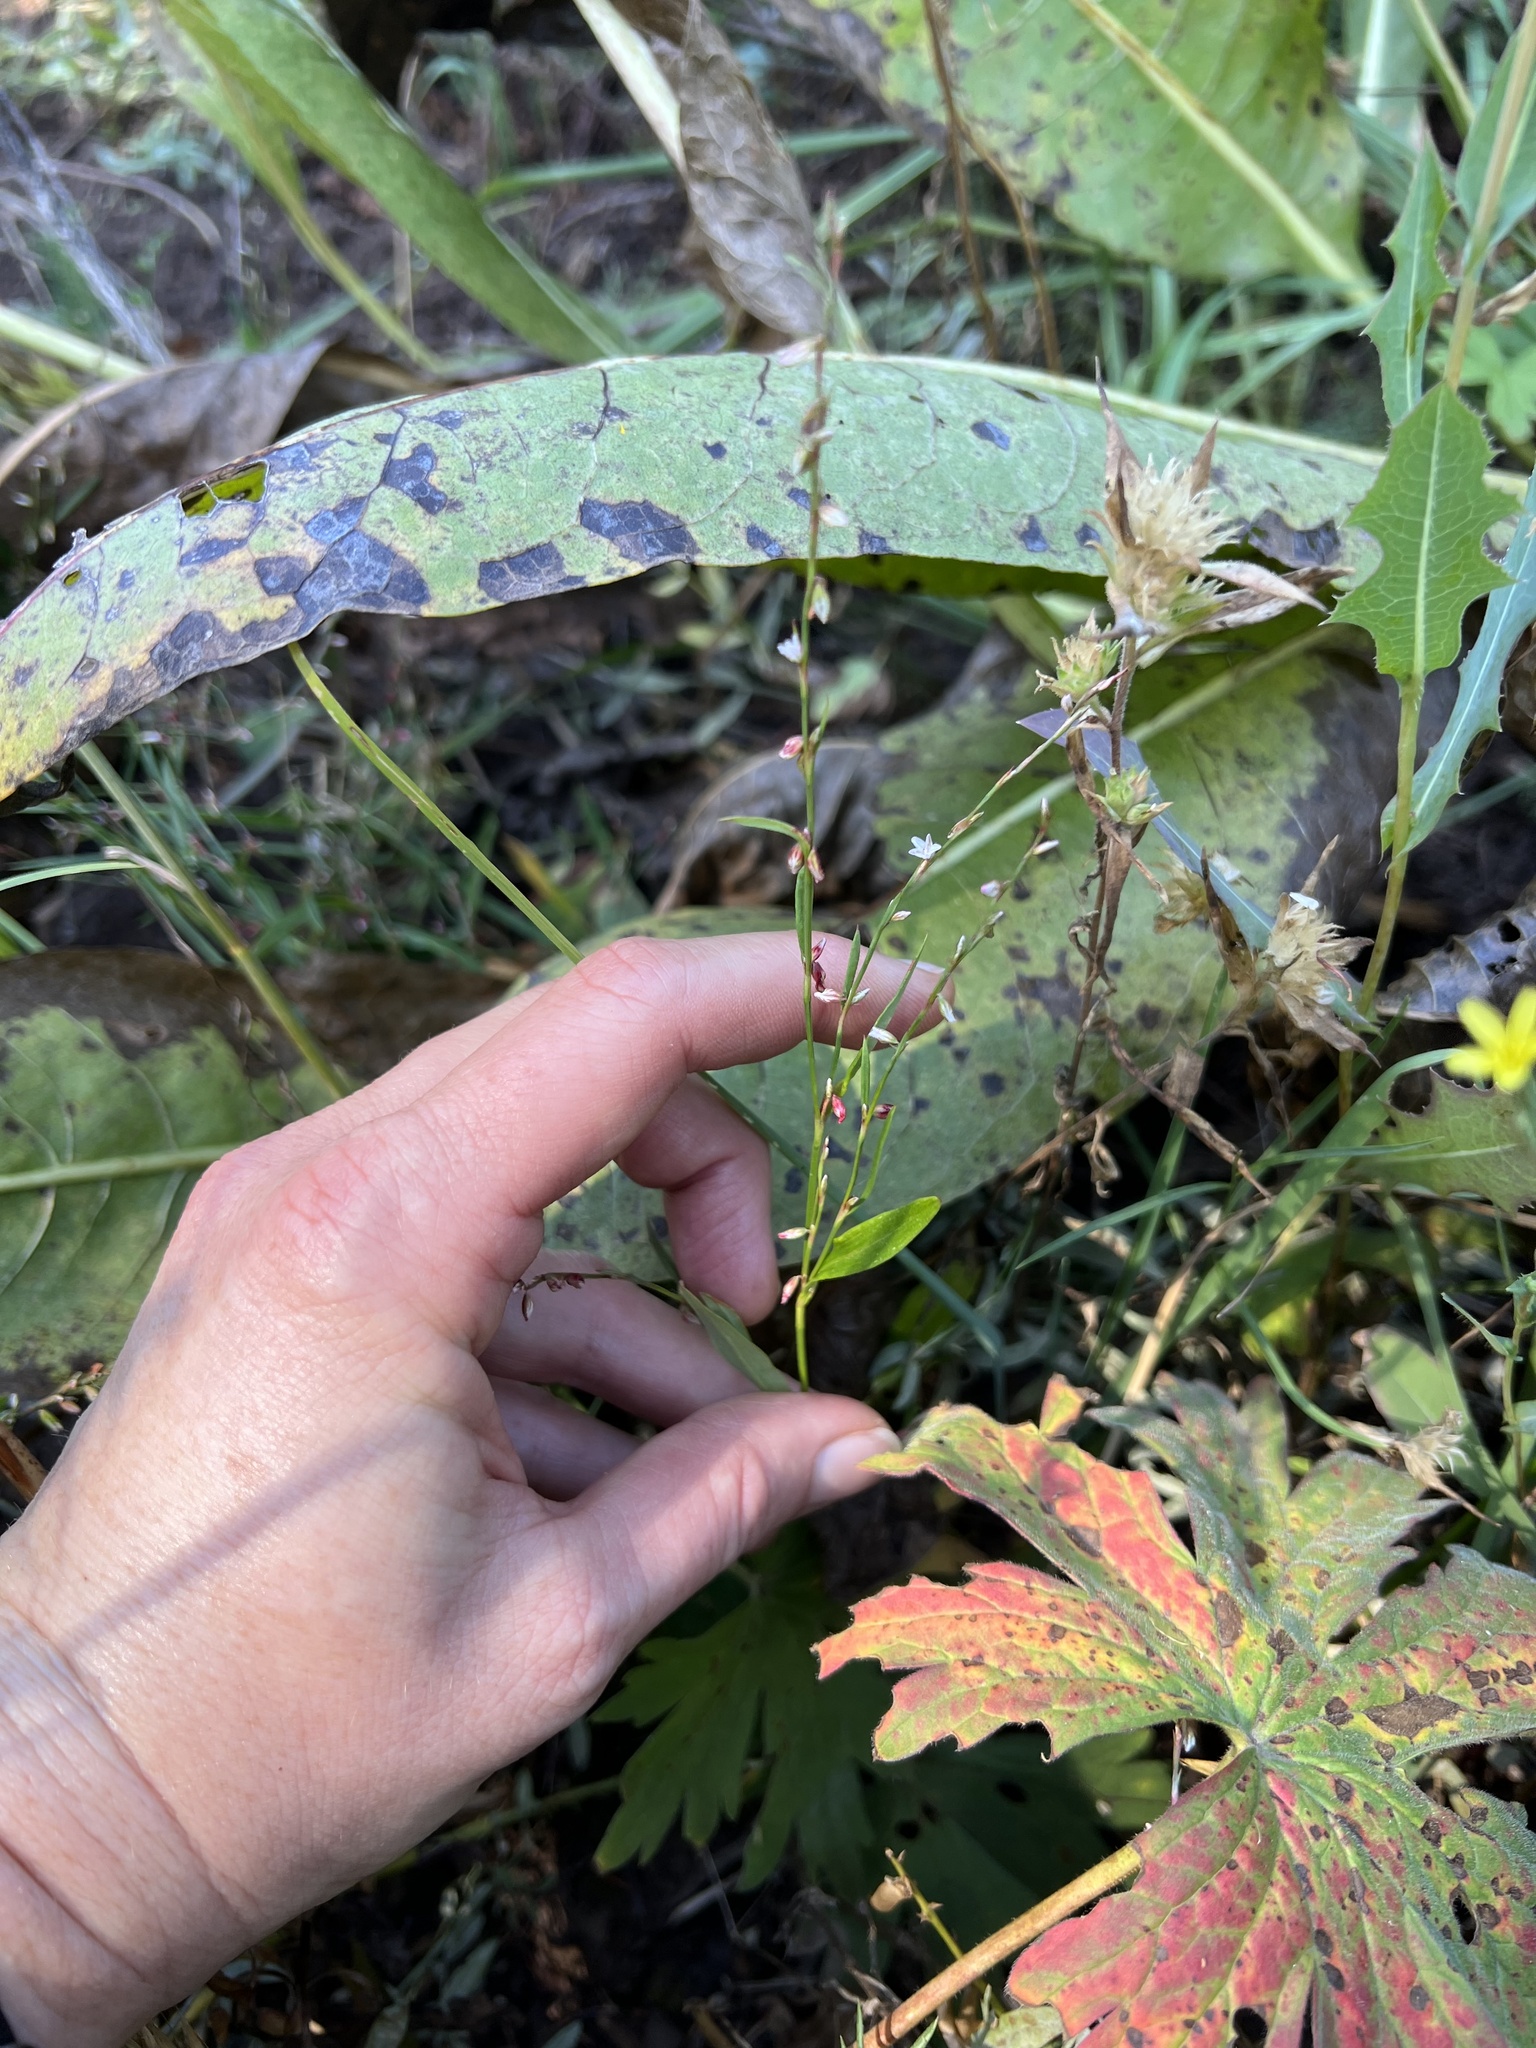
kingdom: Plantae
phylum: Tracheophyta
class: Magnoliopsida
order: Caryophyllales
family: Polygonaceae
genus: Polygonum
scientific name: Polygonum douglasii
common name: Douglas' knotweed
